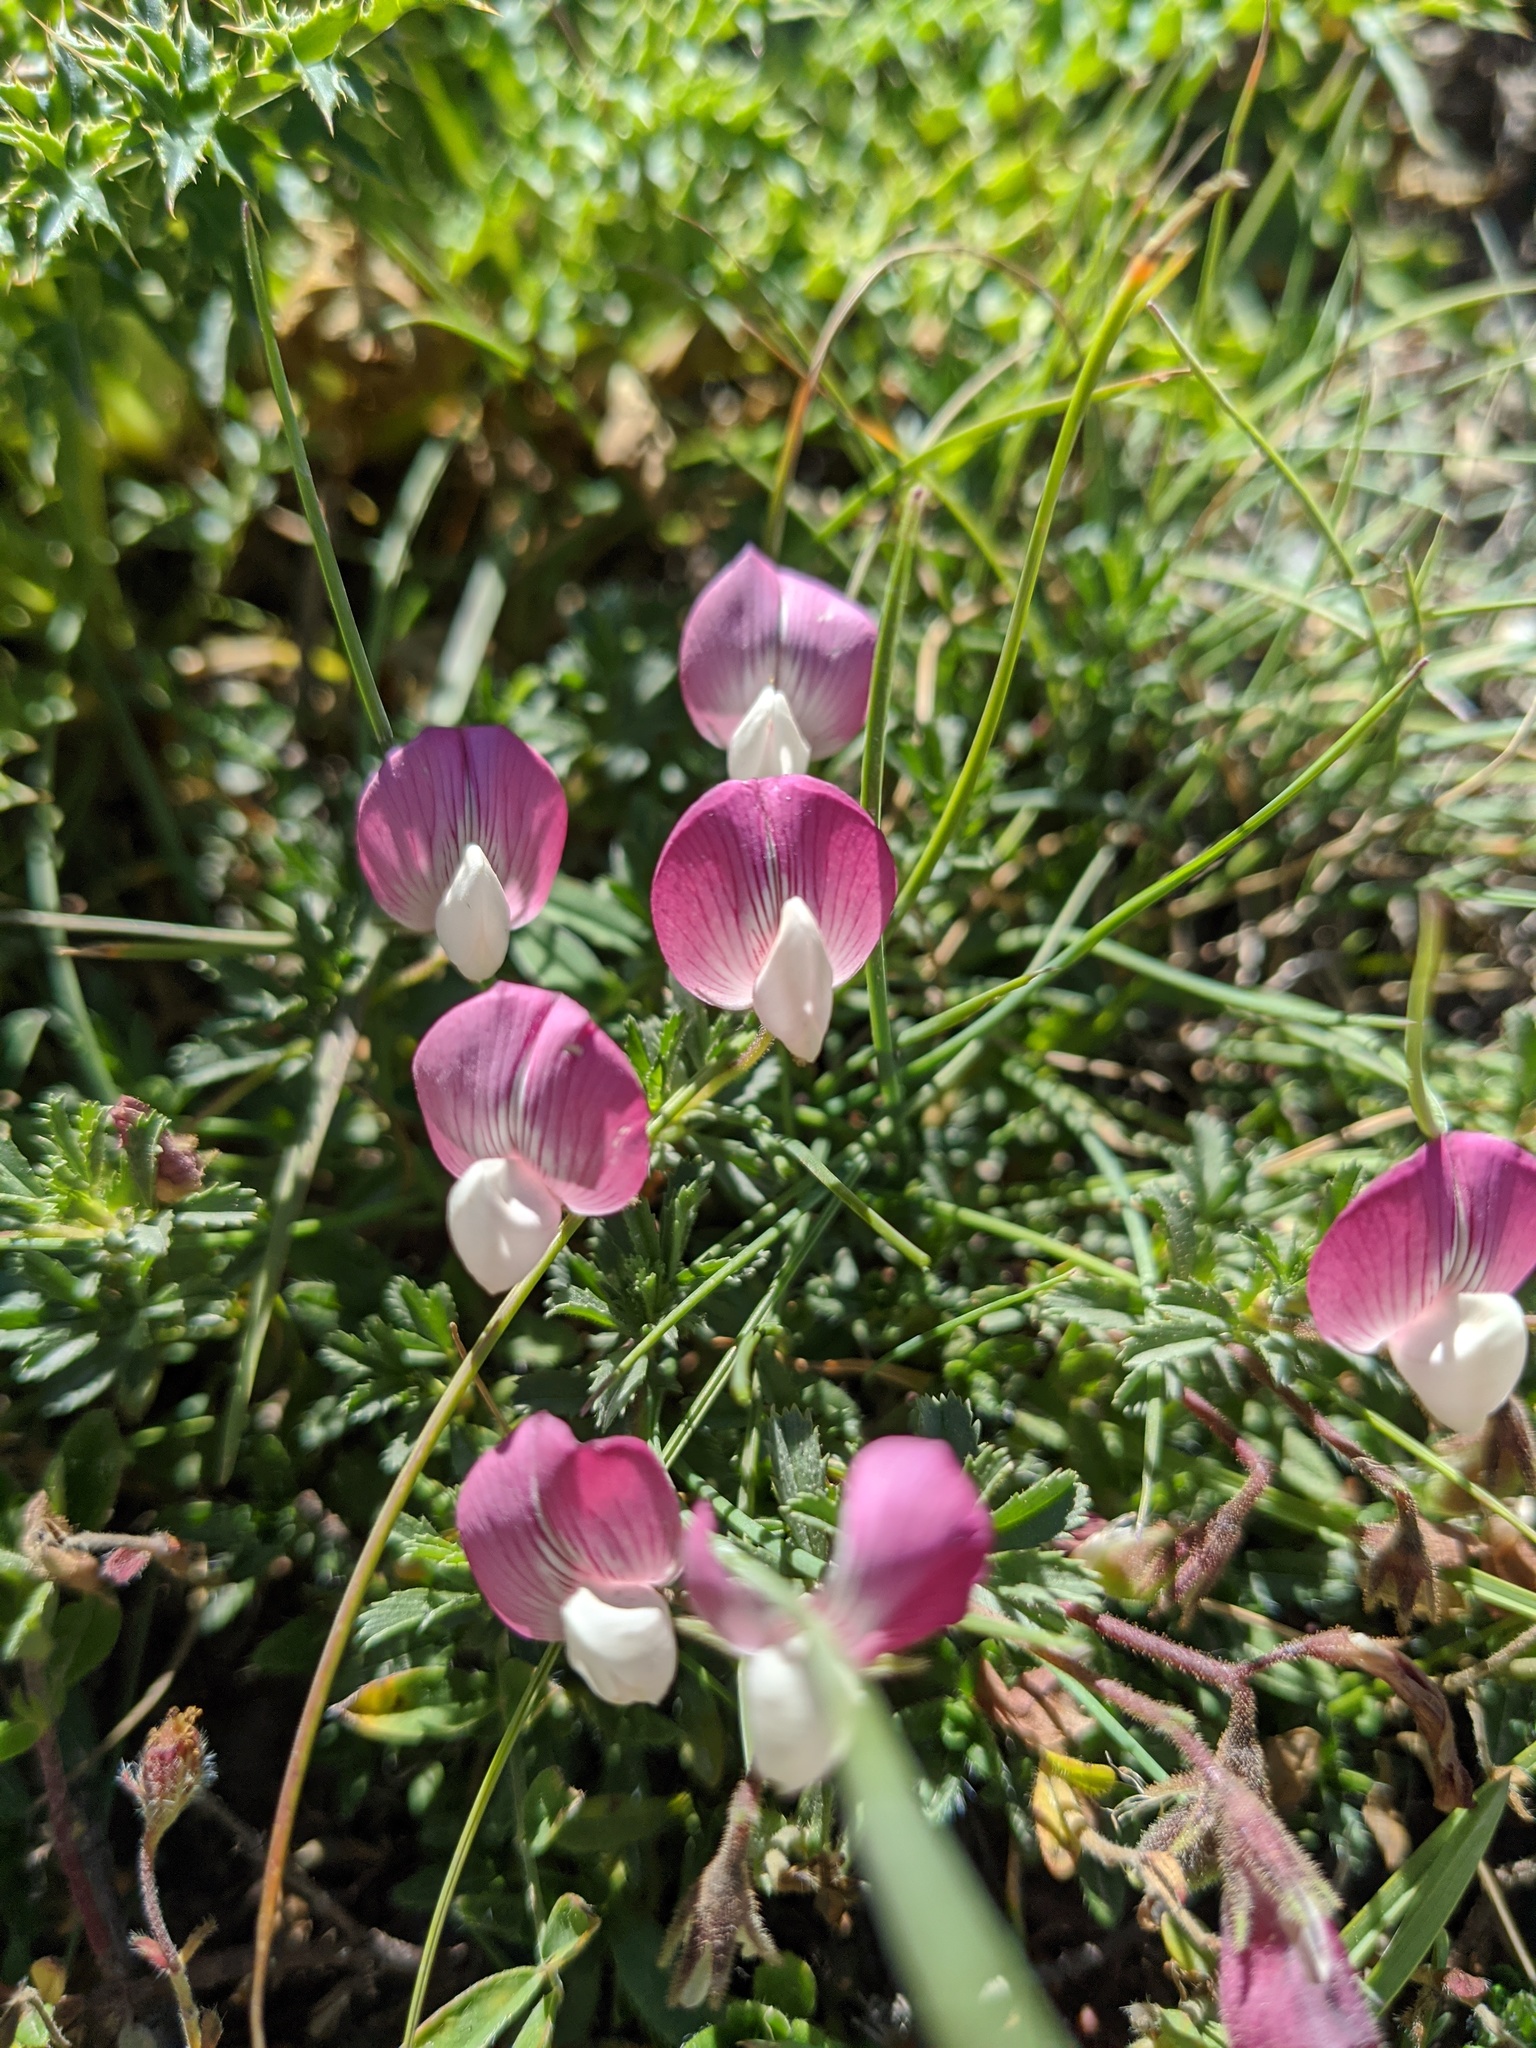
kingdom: Plantae
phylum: Tracheophyta
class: Magnoliopsida
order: Fabales
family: Fabaceae
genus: Ononis
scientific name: Ononis cristata
